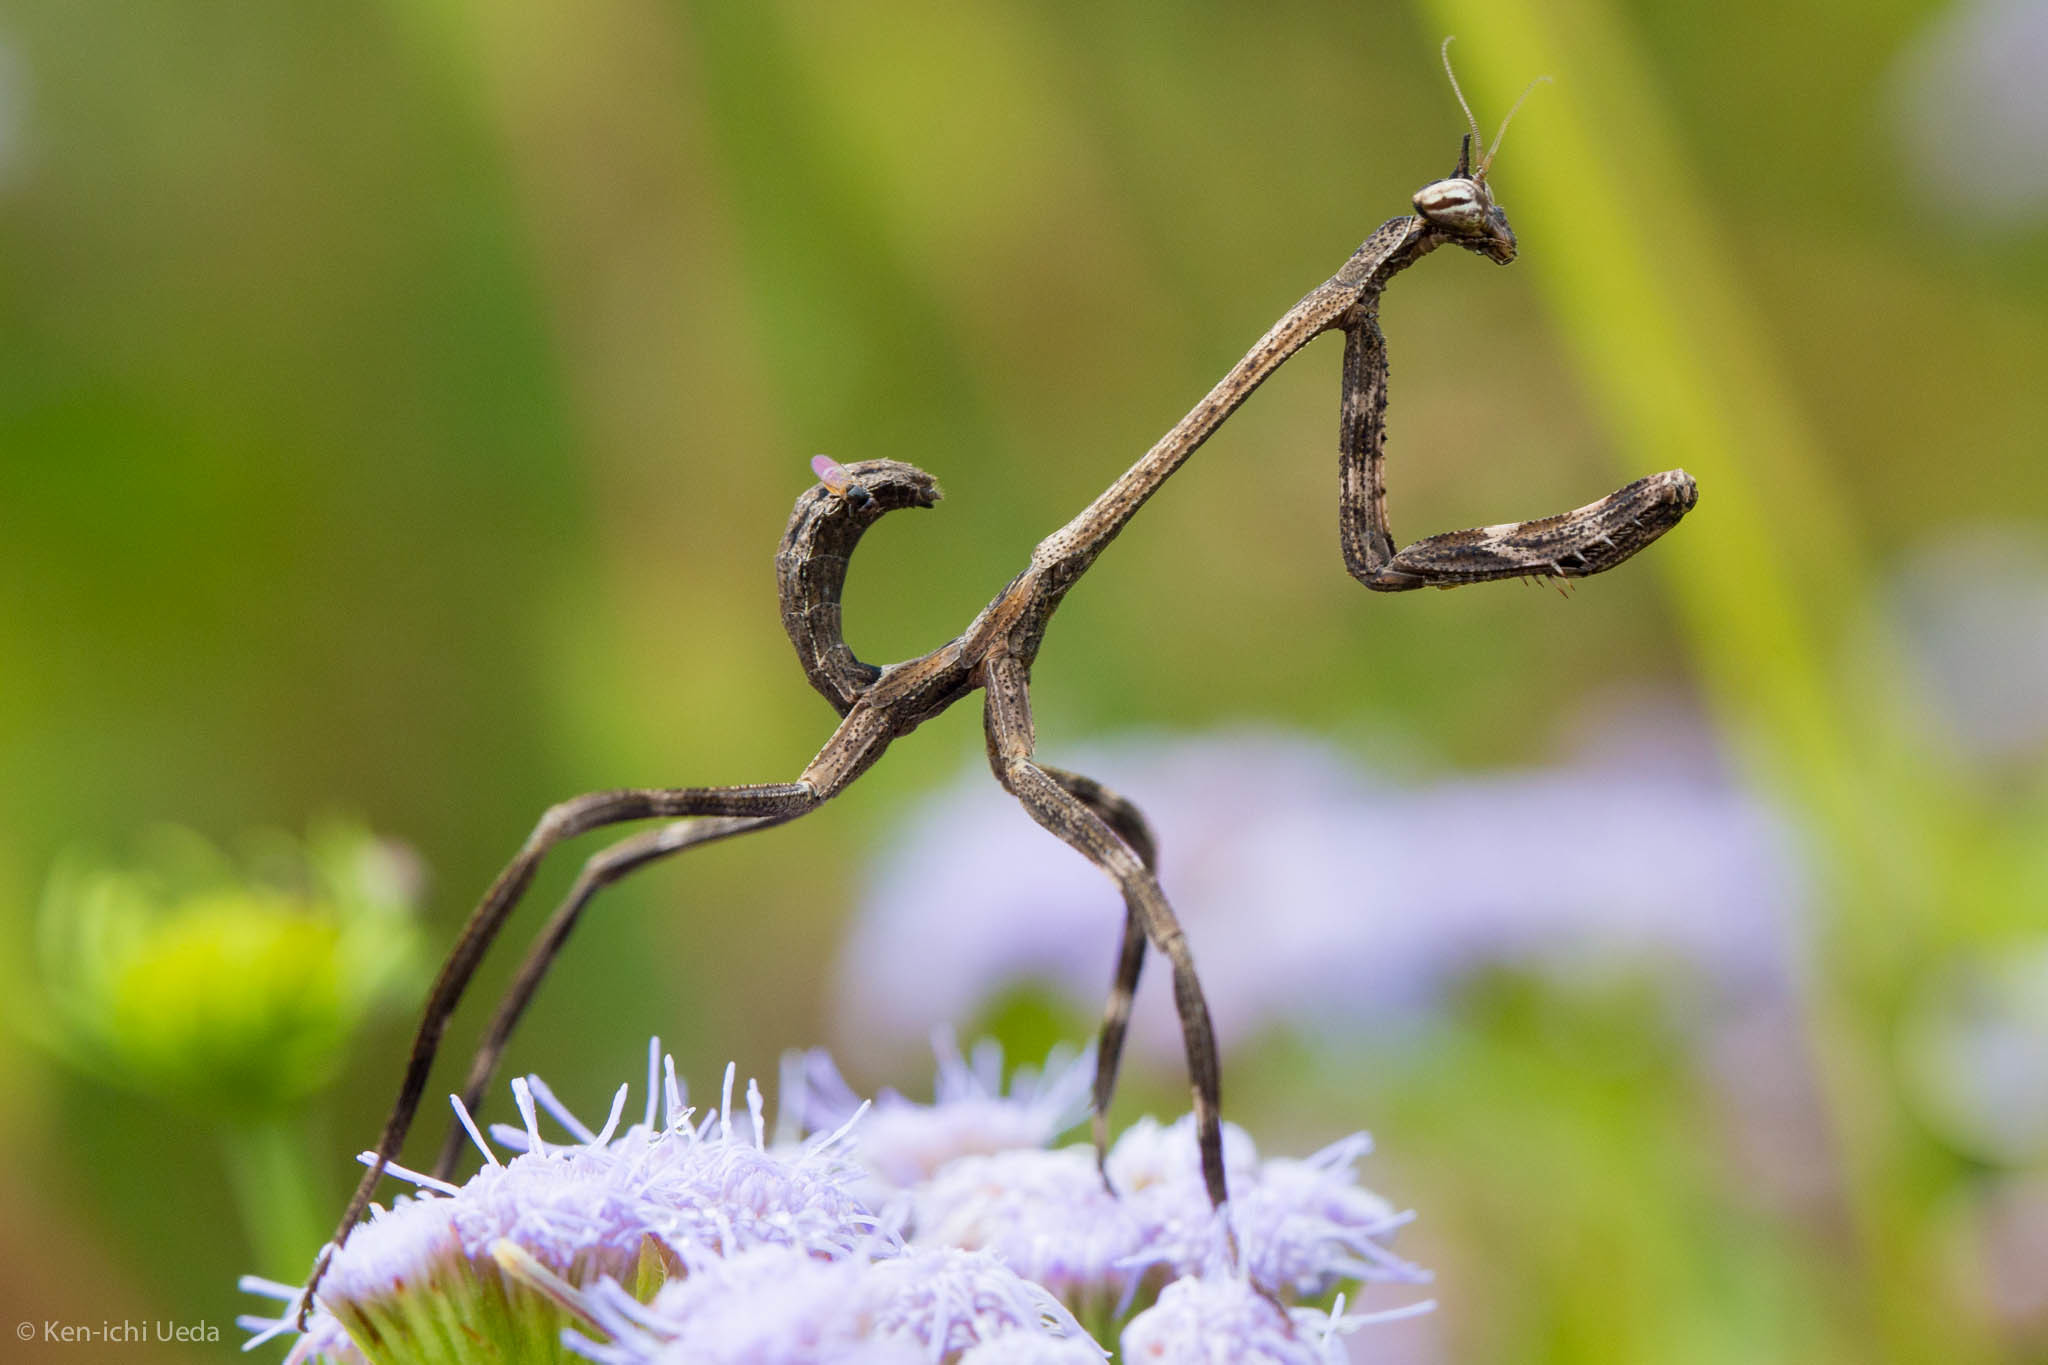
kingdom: Animalia
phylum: Arthropoda
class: Insecta
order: Mantodea
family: Mantidae
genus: Pseudovates
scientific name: Pseudovates chlorophaea
